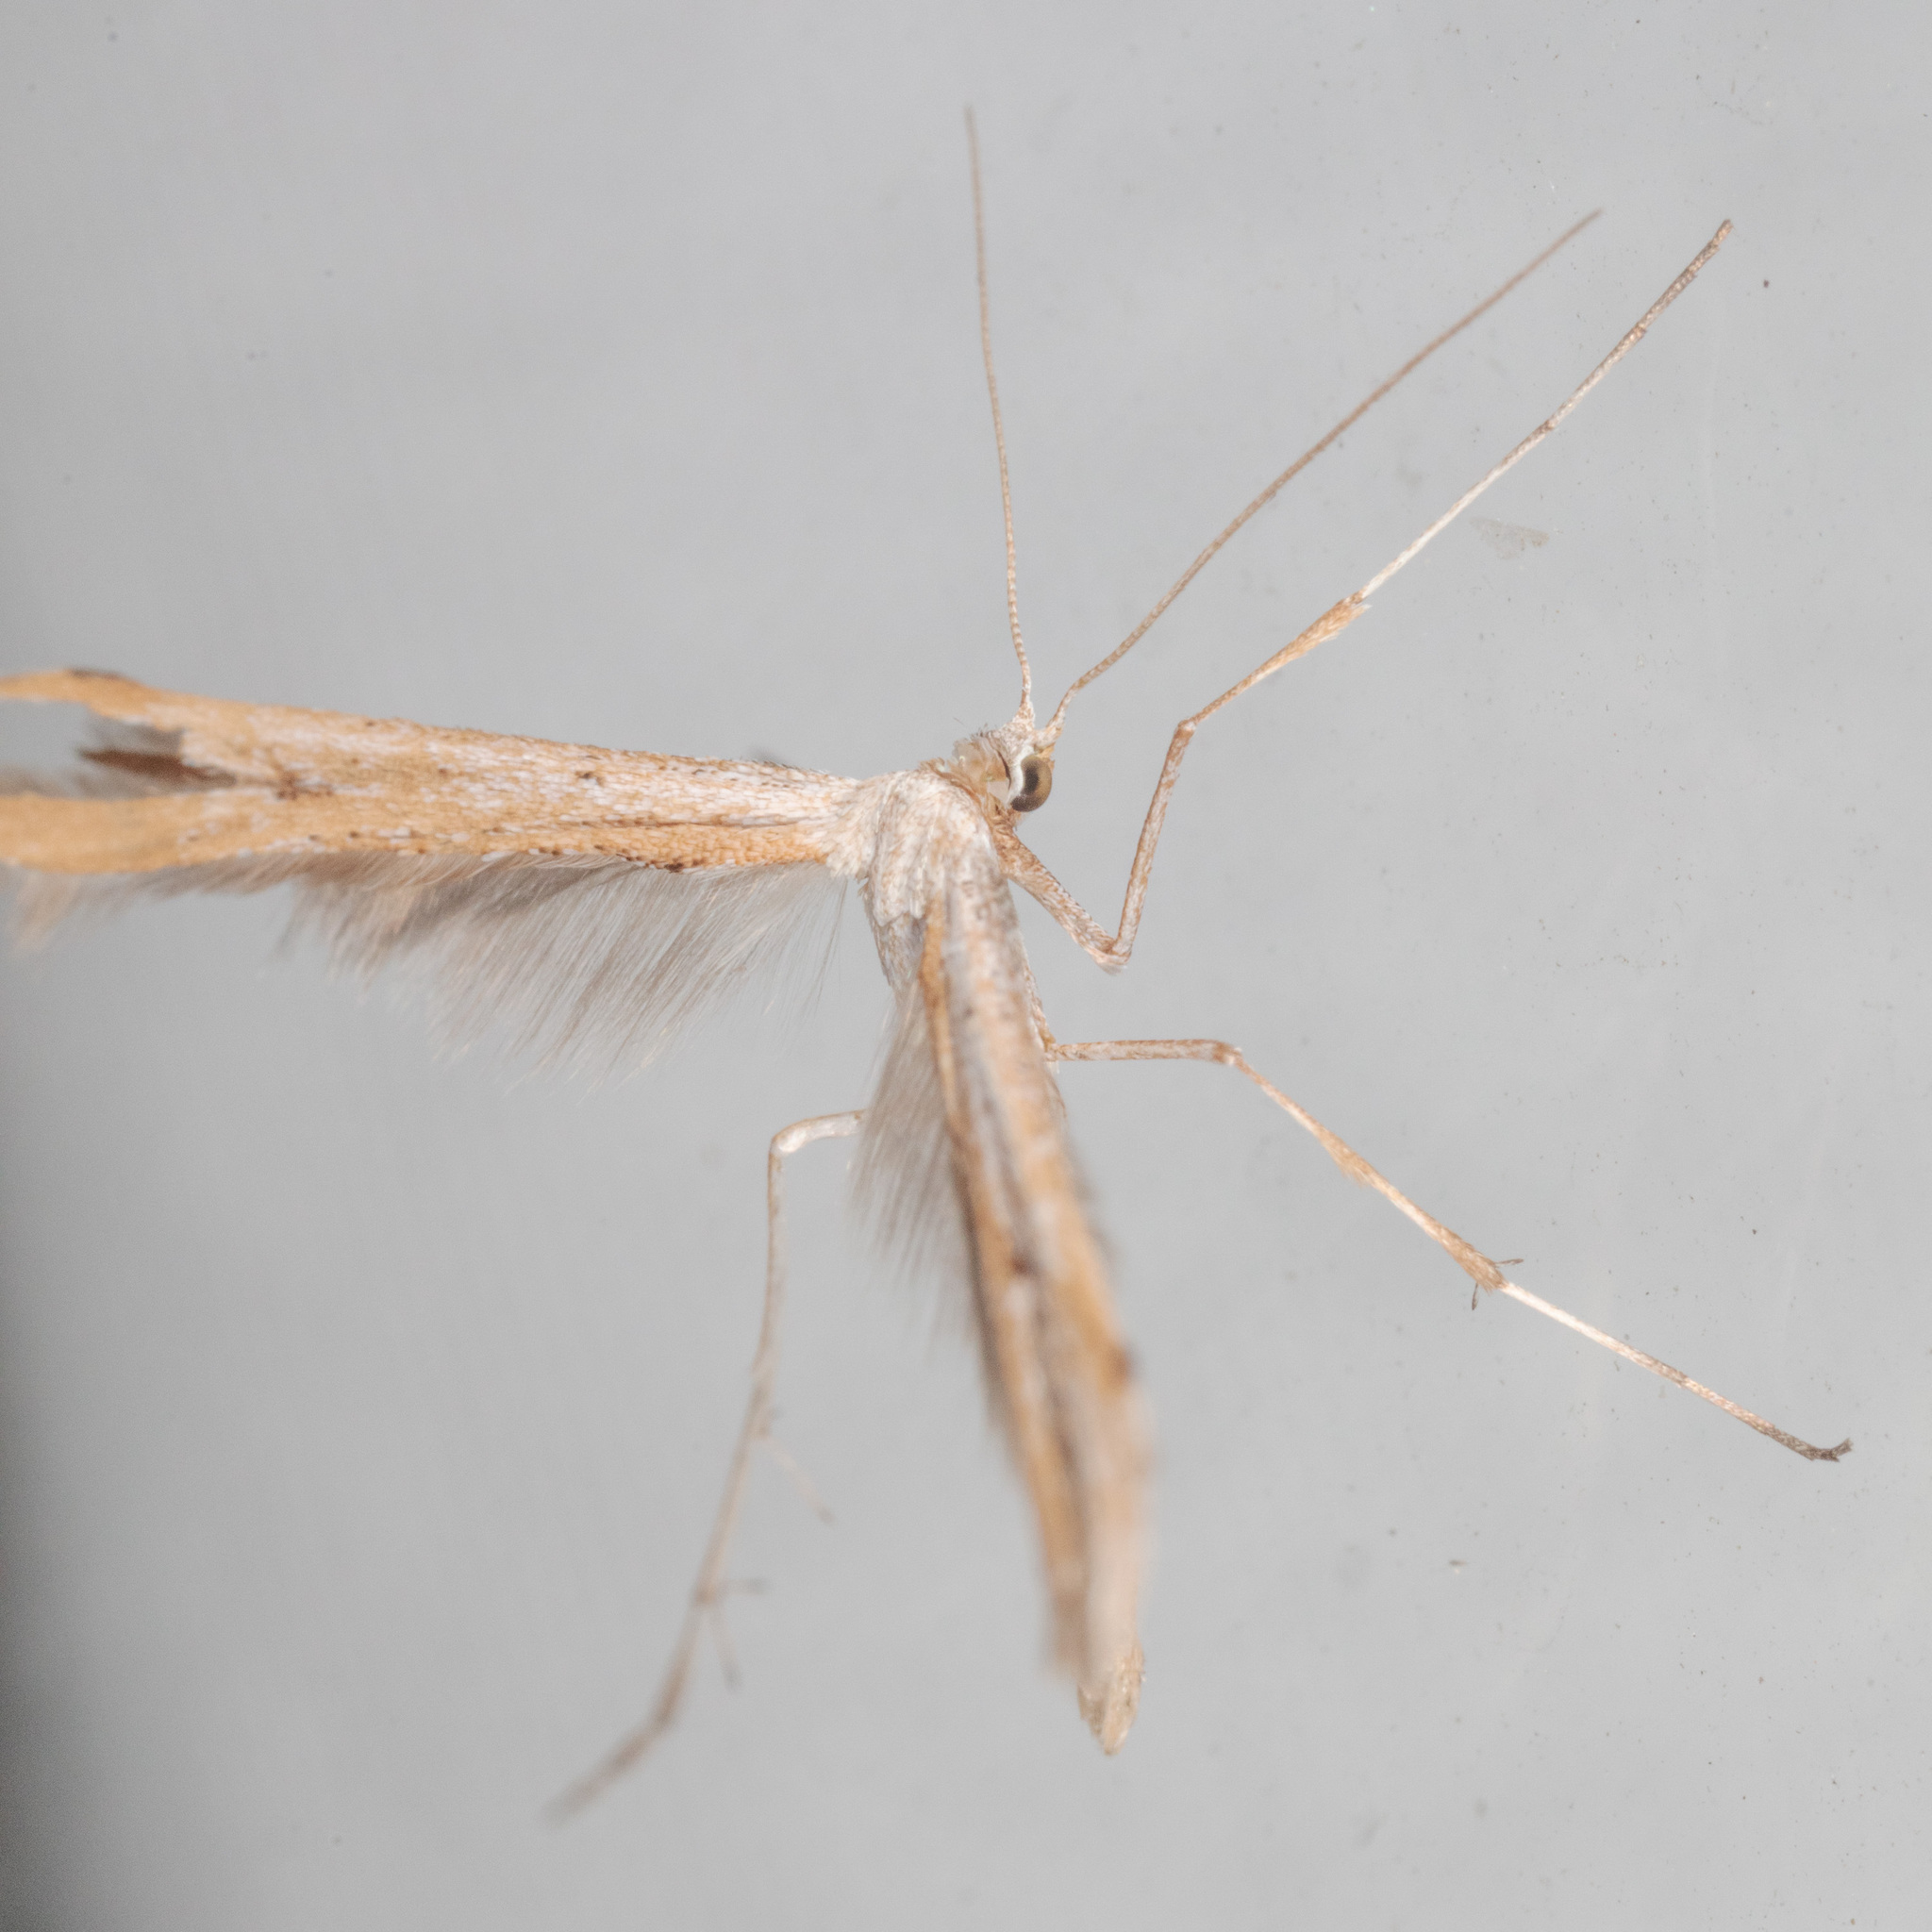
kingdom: Animalia
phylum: Arthropoda
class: Insecta
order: Lepidoptera
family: Pterophoridae
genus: Emmelina
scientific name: Emmelina monodactyla
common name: Common plume
